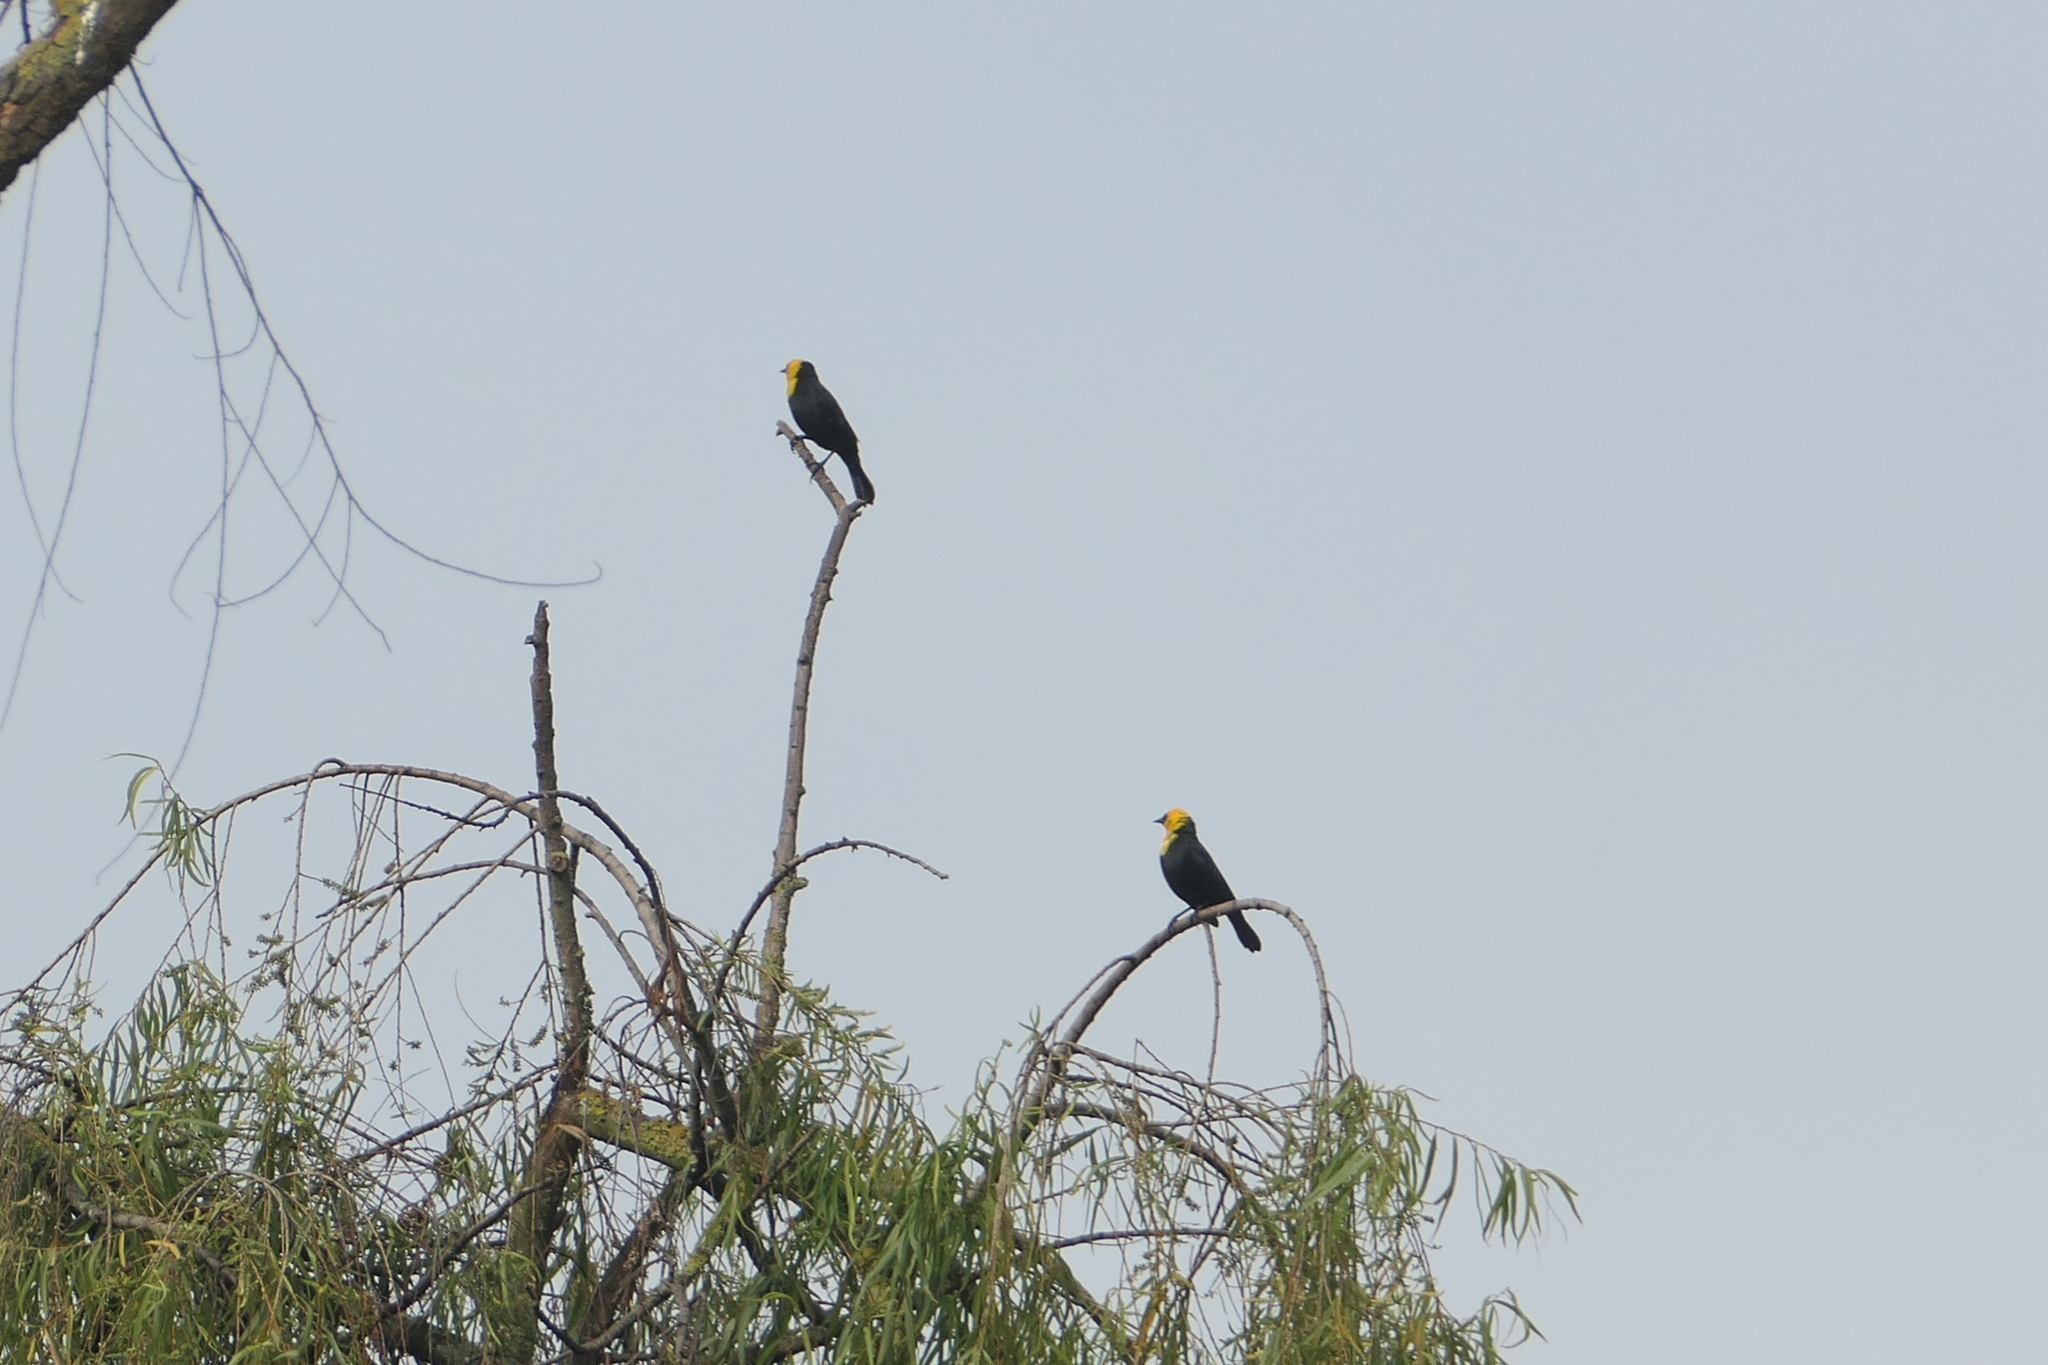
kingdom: Animalia
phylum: Chordata
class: Aves
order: Passeriformes
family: Icteridae
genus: Chrysomus
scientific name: Chrysomus icterocephalus
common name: Yellow-hooded blackbird
